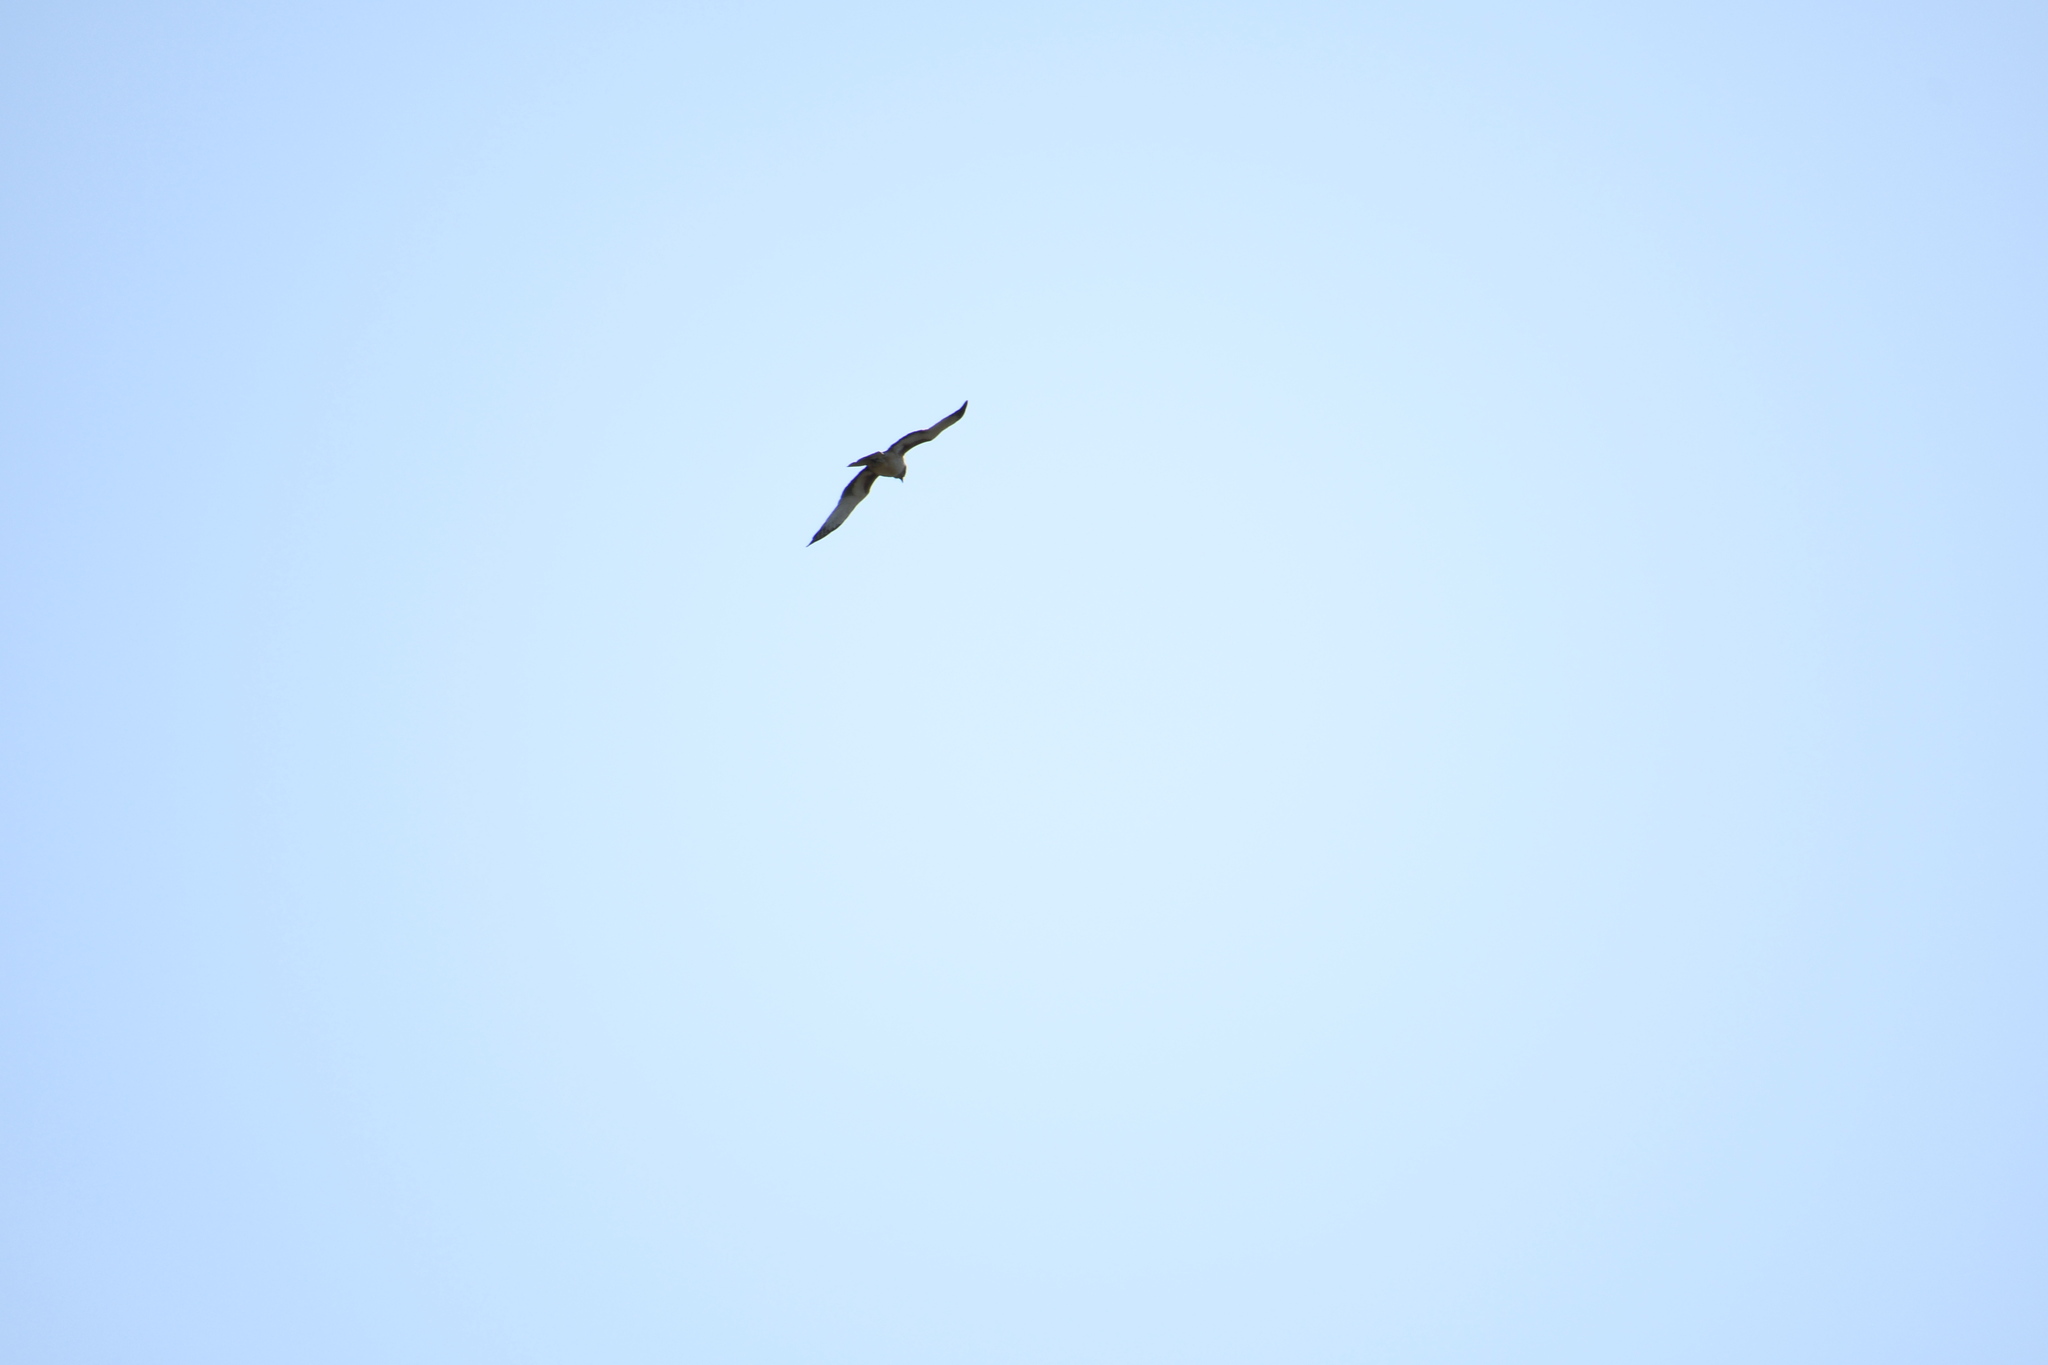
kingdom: Animalia
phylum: Chordata
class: Aves
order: Accipitriformes
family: Accipitridae
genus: Hieraaetus
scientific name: Hieraaetus morphnoides
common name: Little eagle
